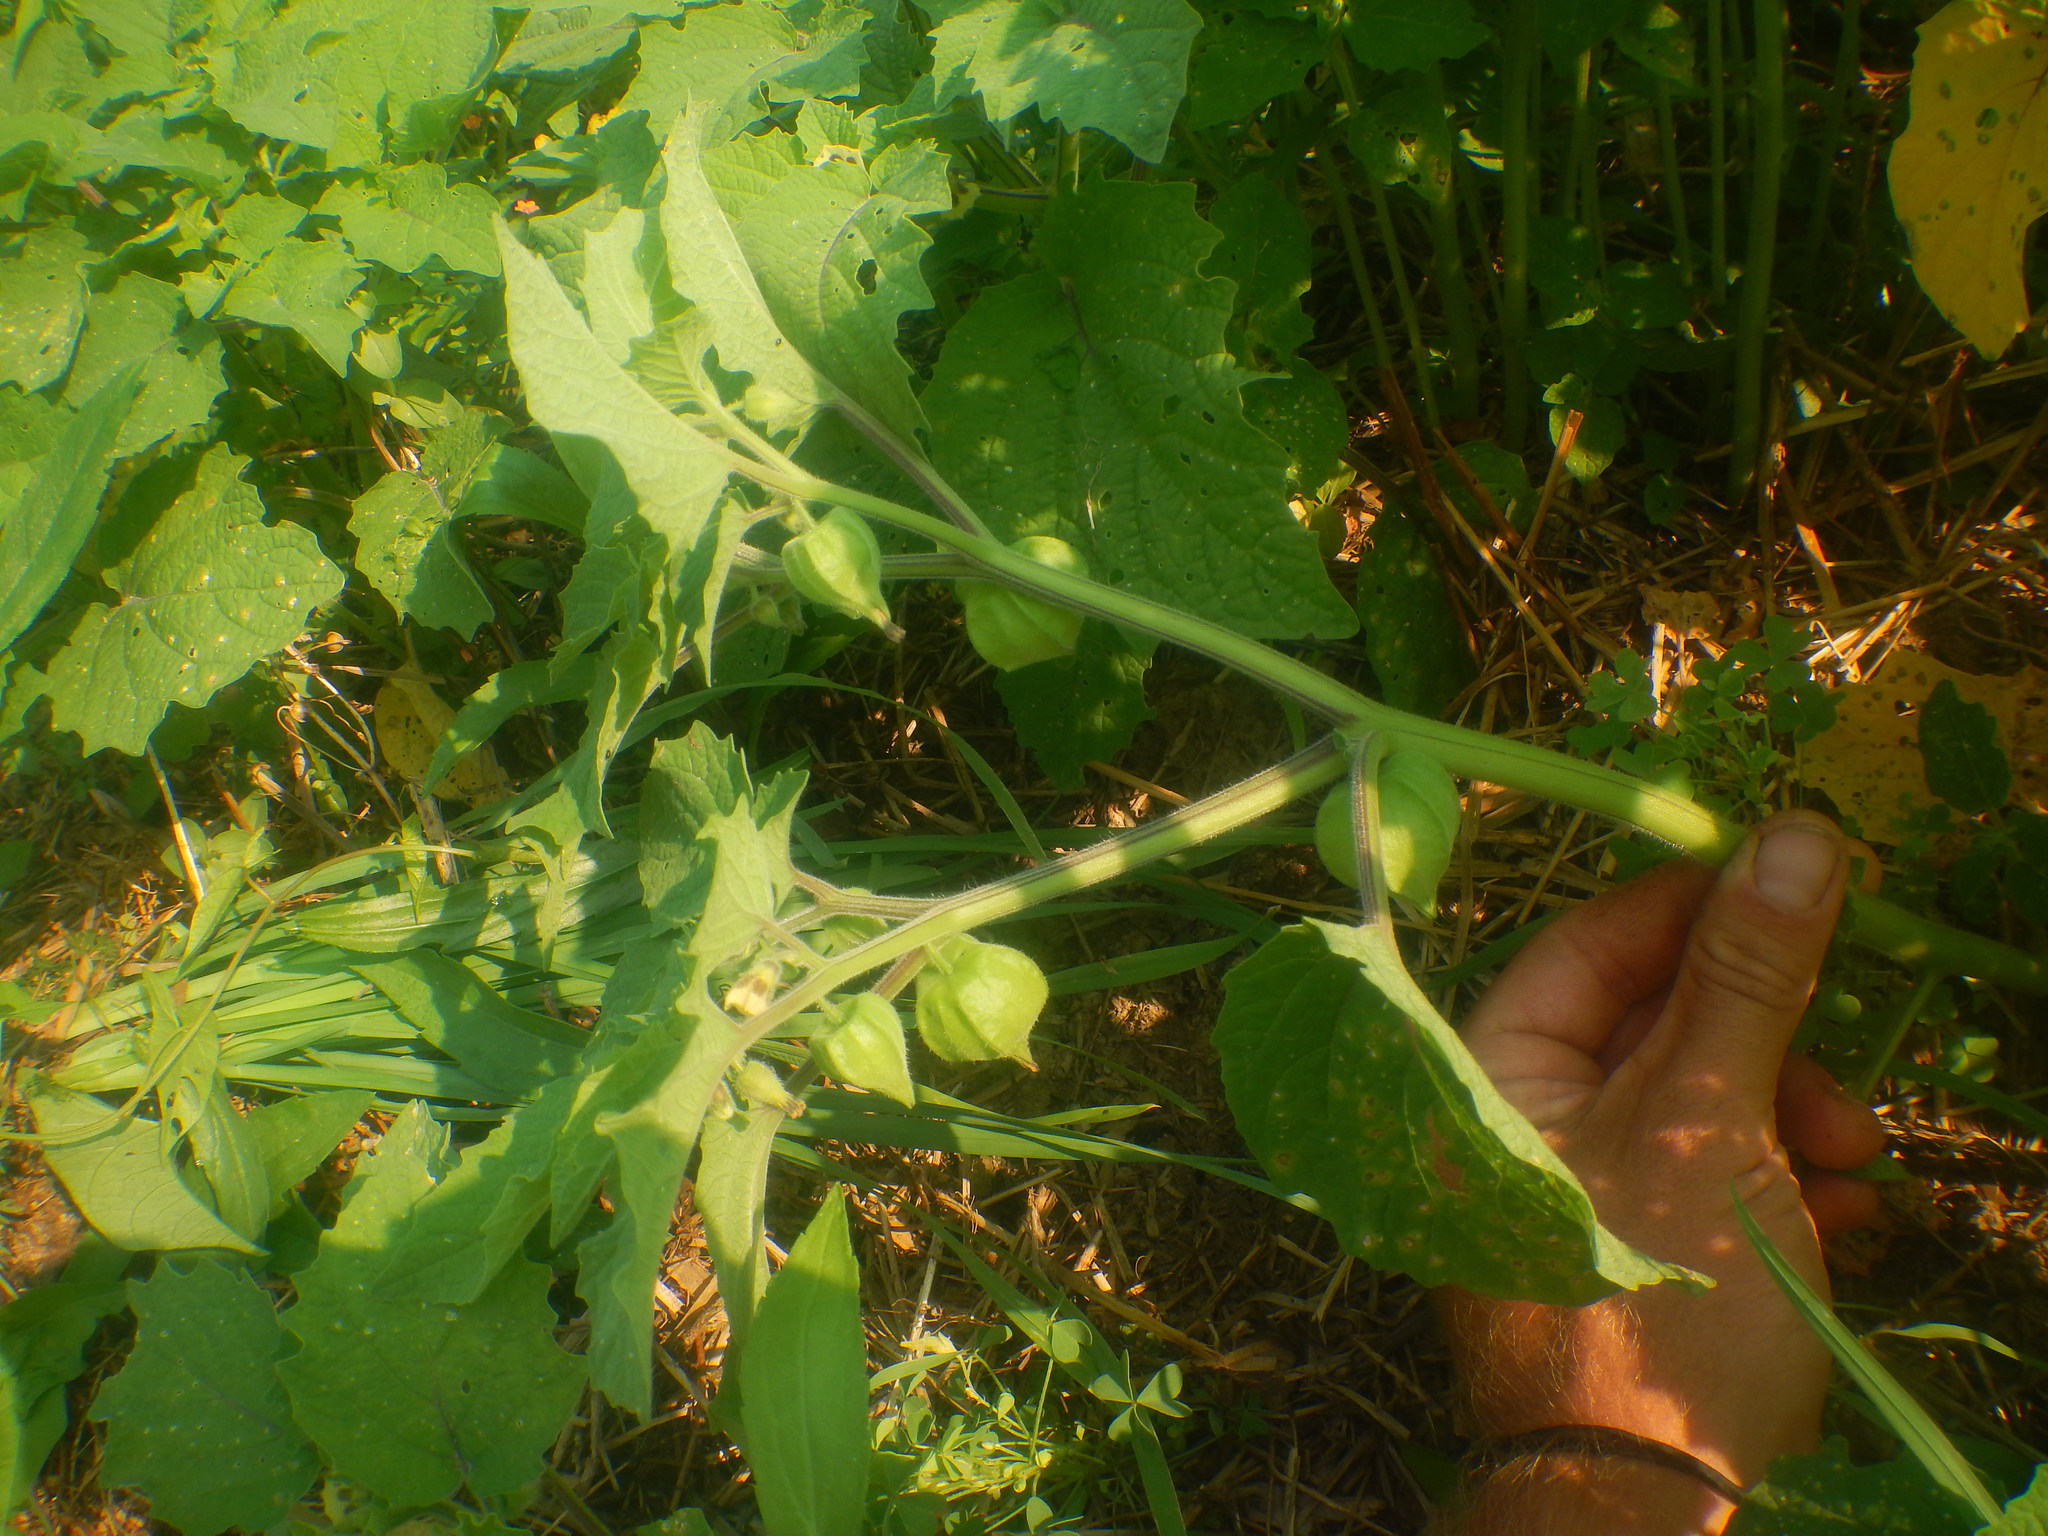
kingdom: Plantae
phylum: Tracheophyta
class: Magnoliopsida
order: Solanales
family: Solanaceae
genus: Physalis
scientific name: Physalis grisea
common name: Dwarf cape-gooseberry
